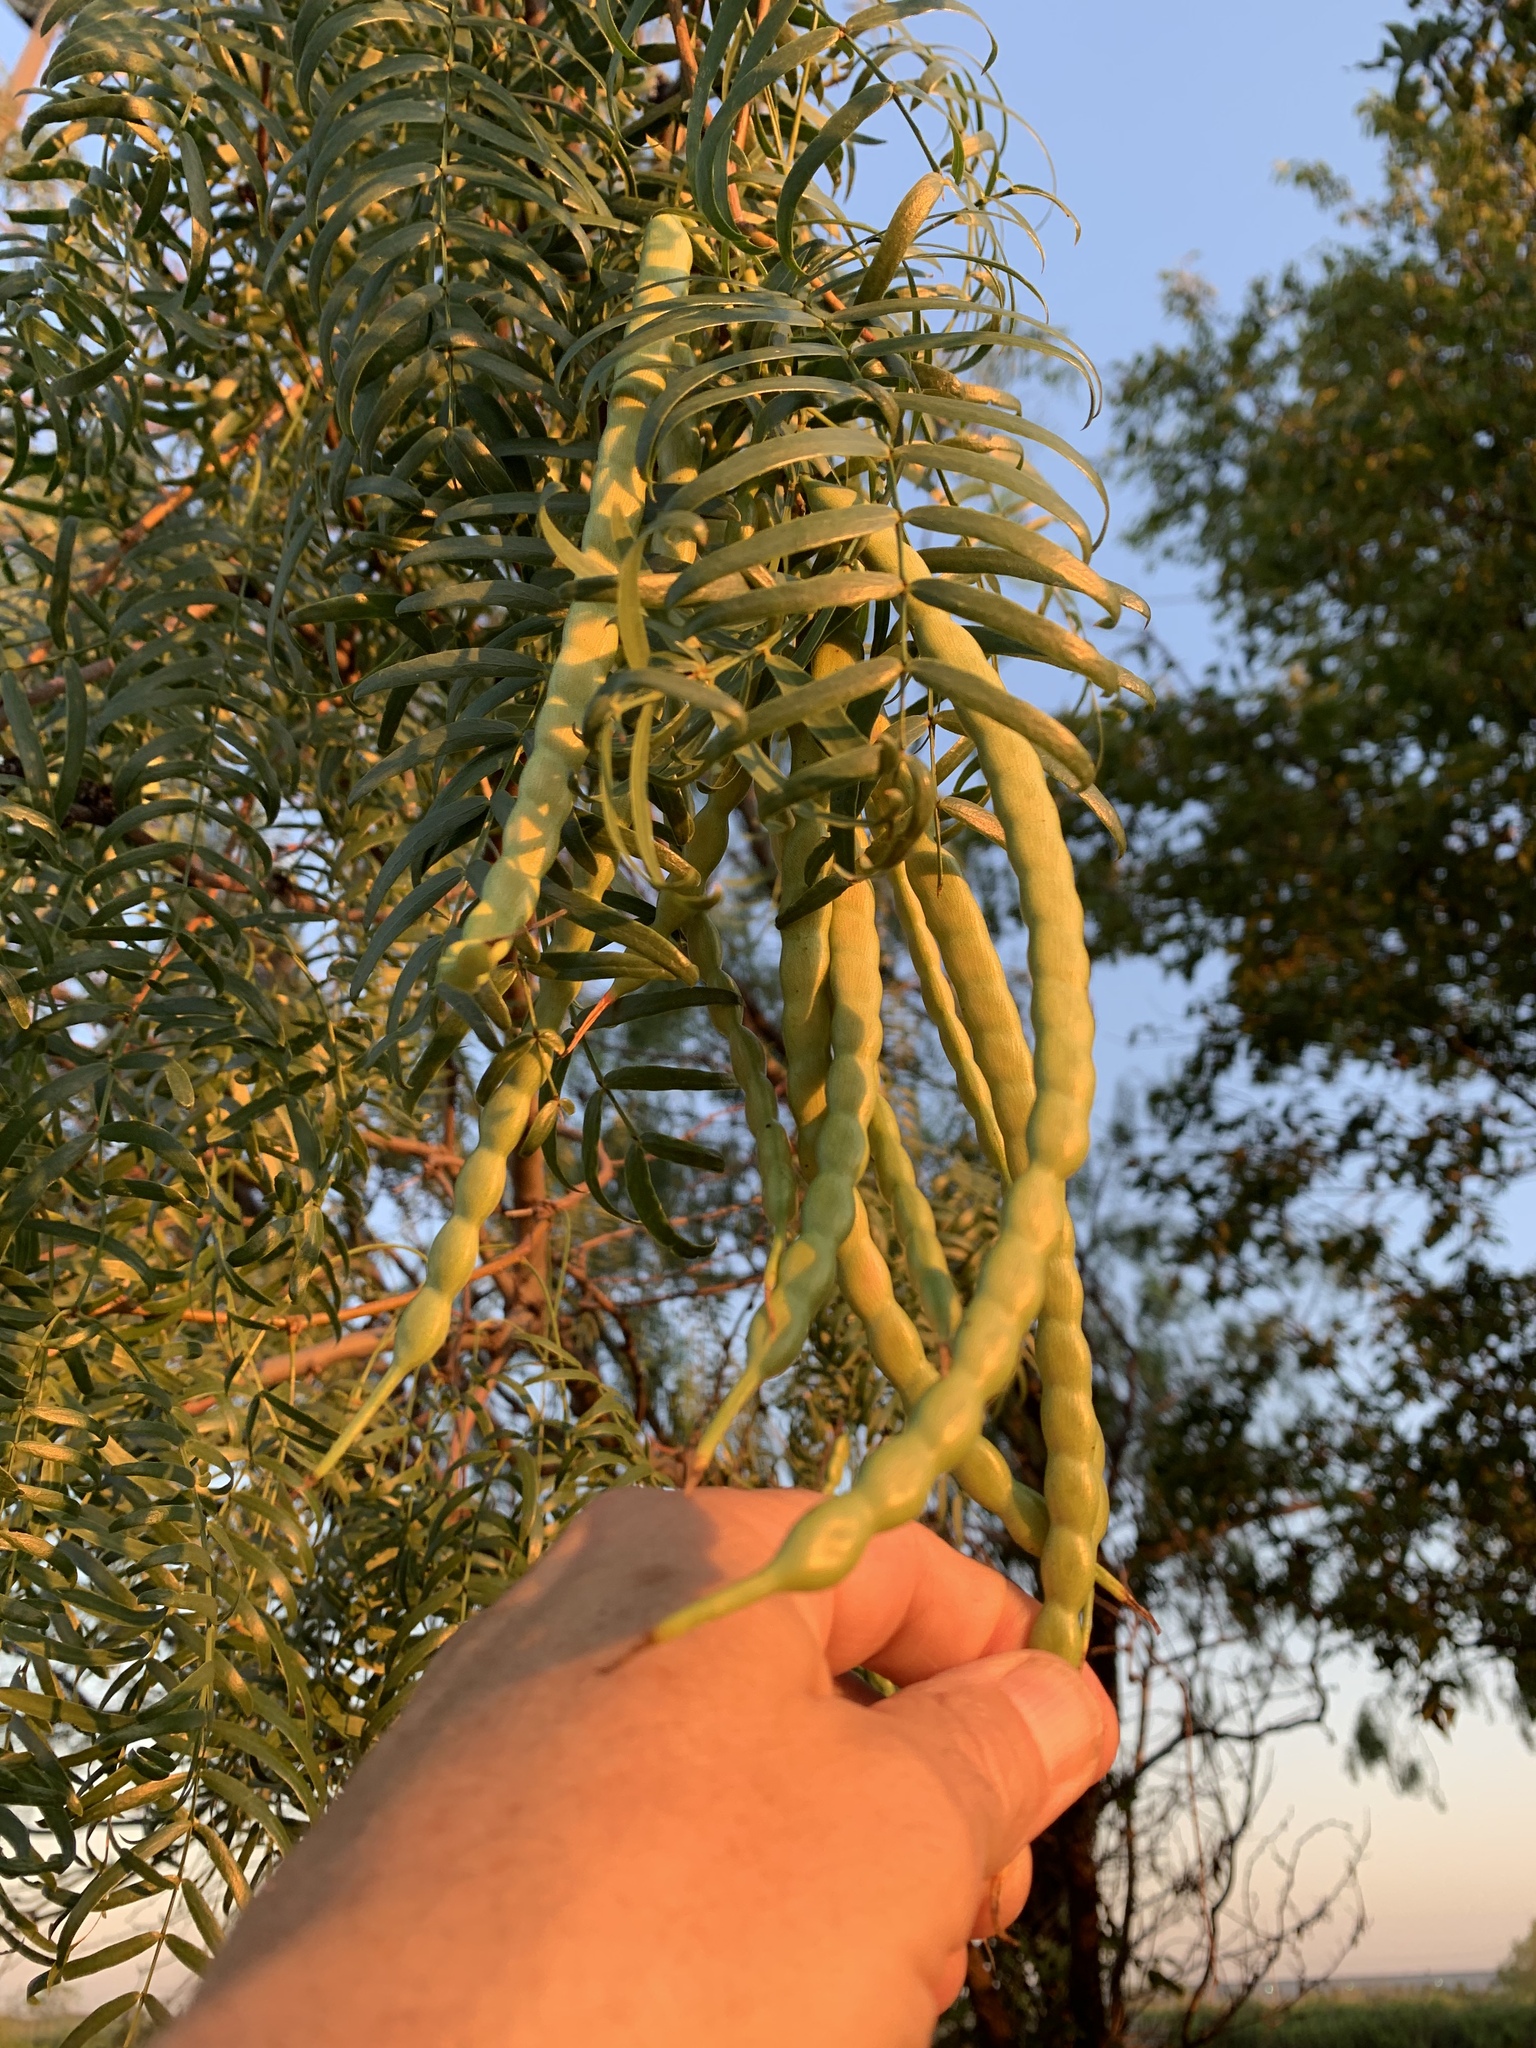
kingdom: Plantae
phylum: Tracheophyta
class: Magnoliopsida
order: Fabales
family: Fabaceae
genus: Prosopis
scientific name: Prosopis glandulosa
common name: Honey mesquite
